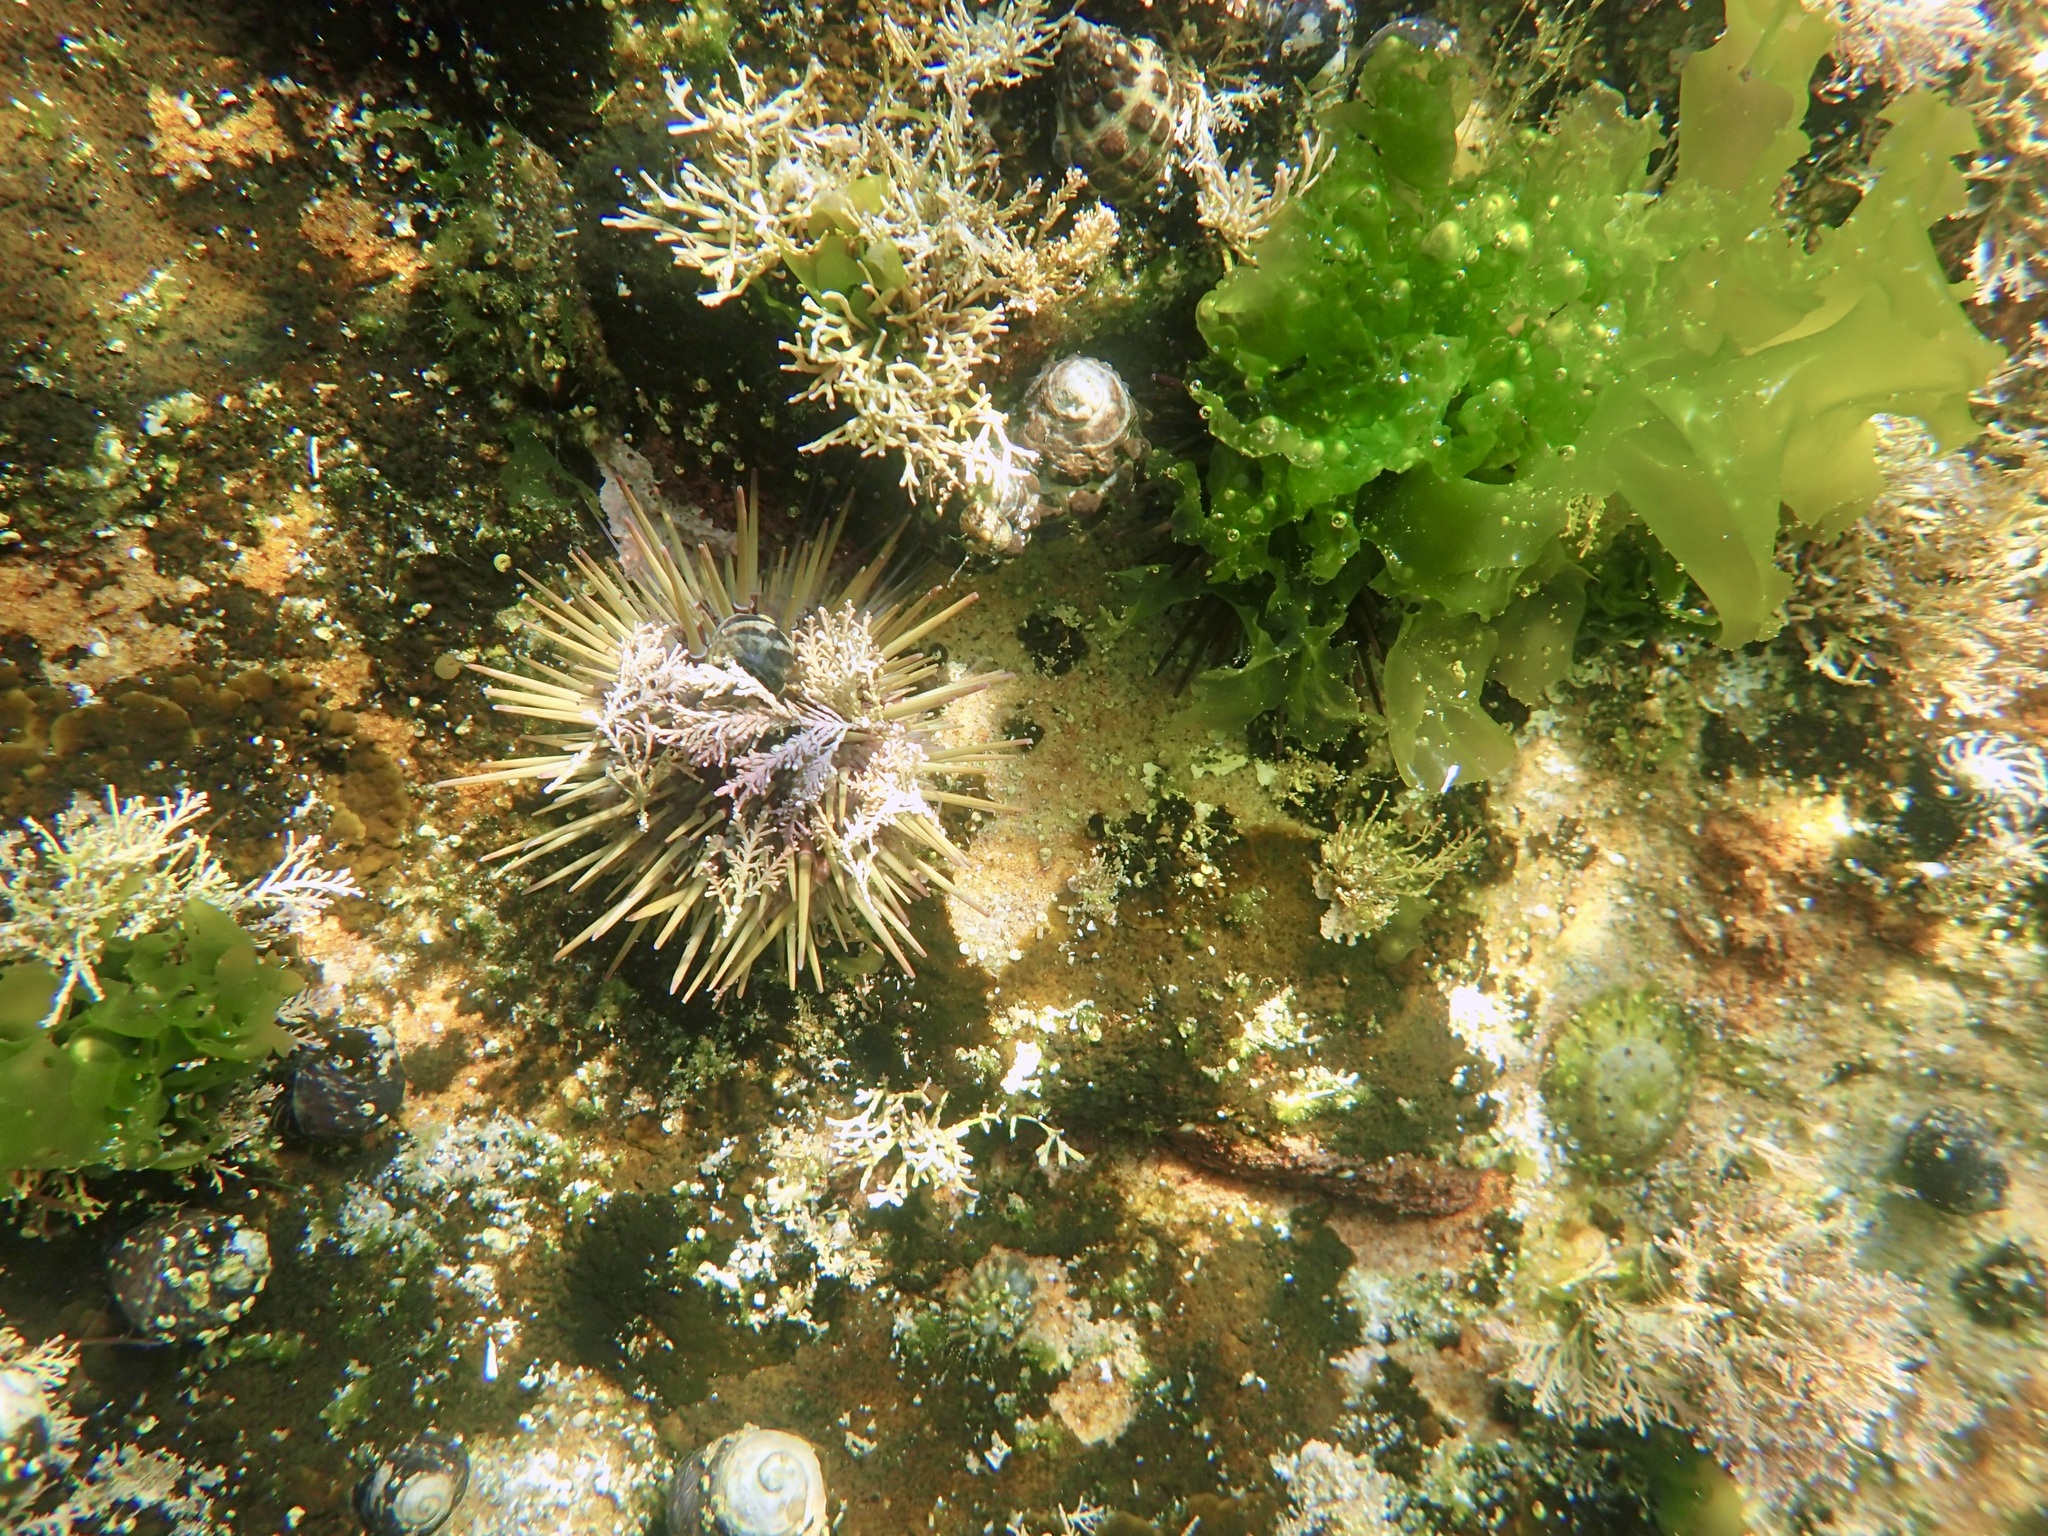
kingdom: Animalia
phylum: Echinodermata
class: Echinoidea
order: Camarodonta
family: Echinometridae
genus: Heliocidaris
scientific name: Heliocidaris erythrogramma
